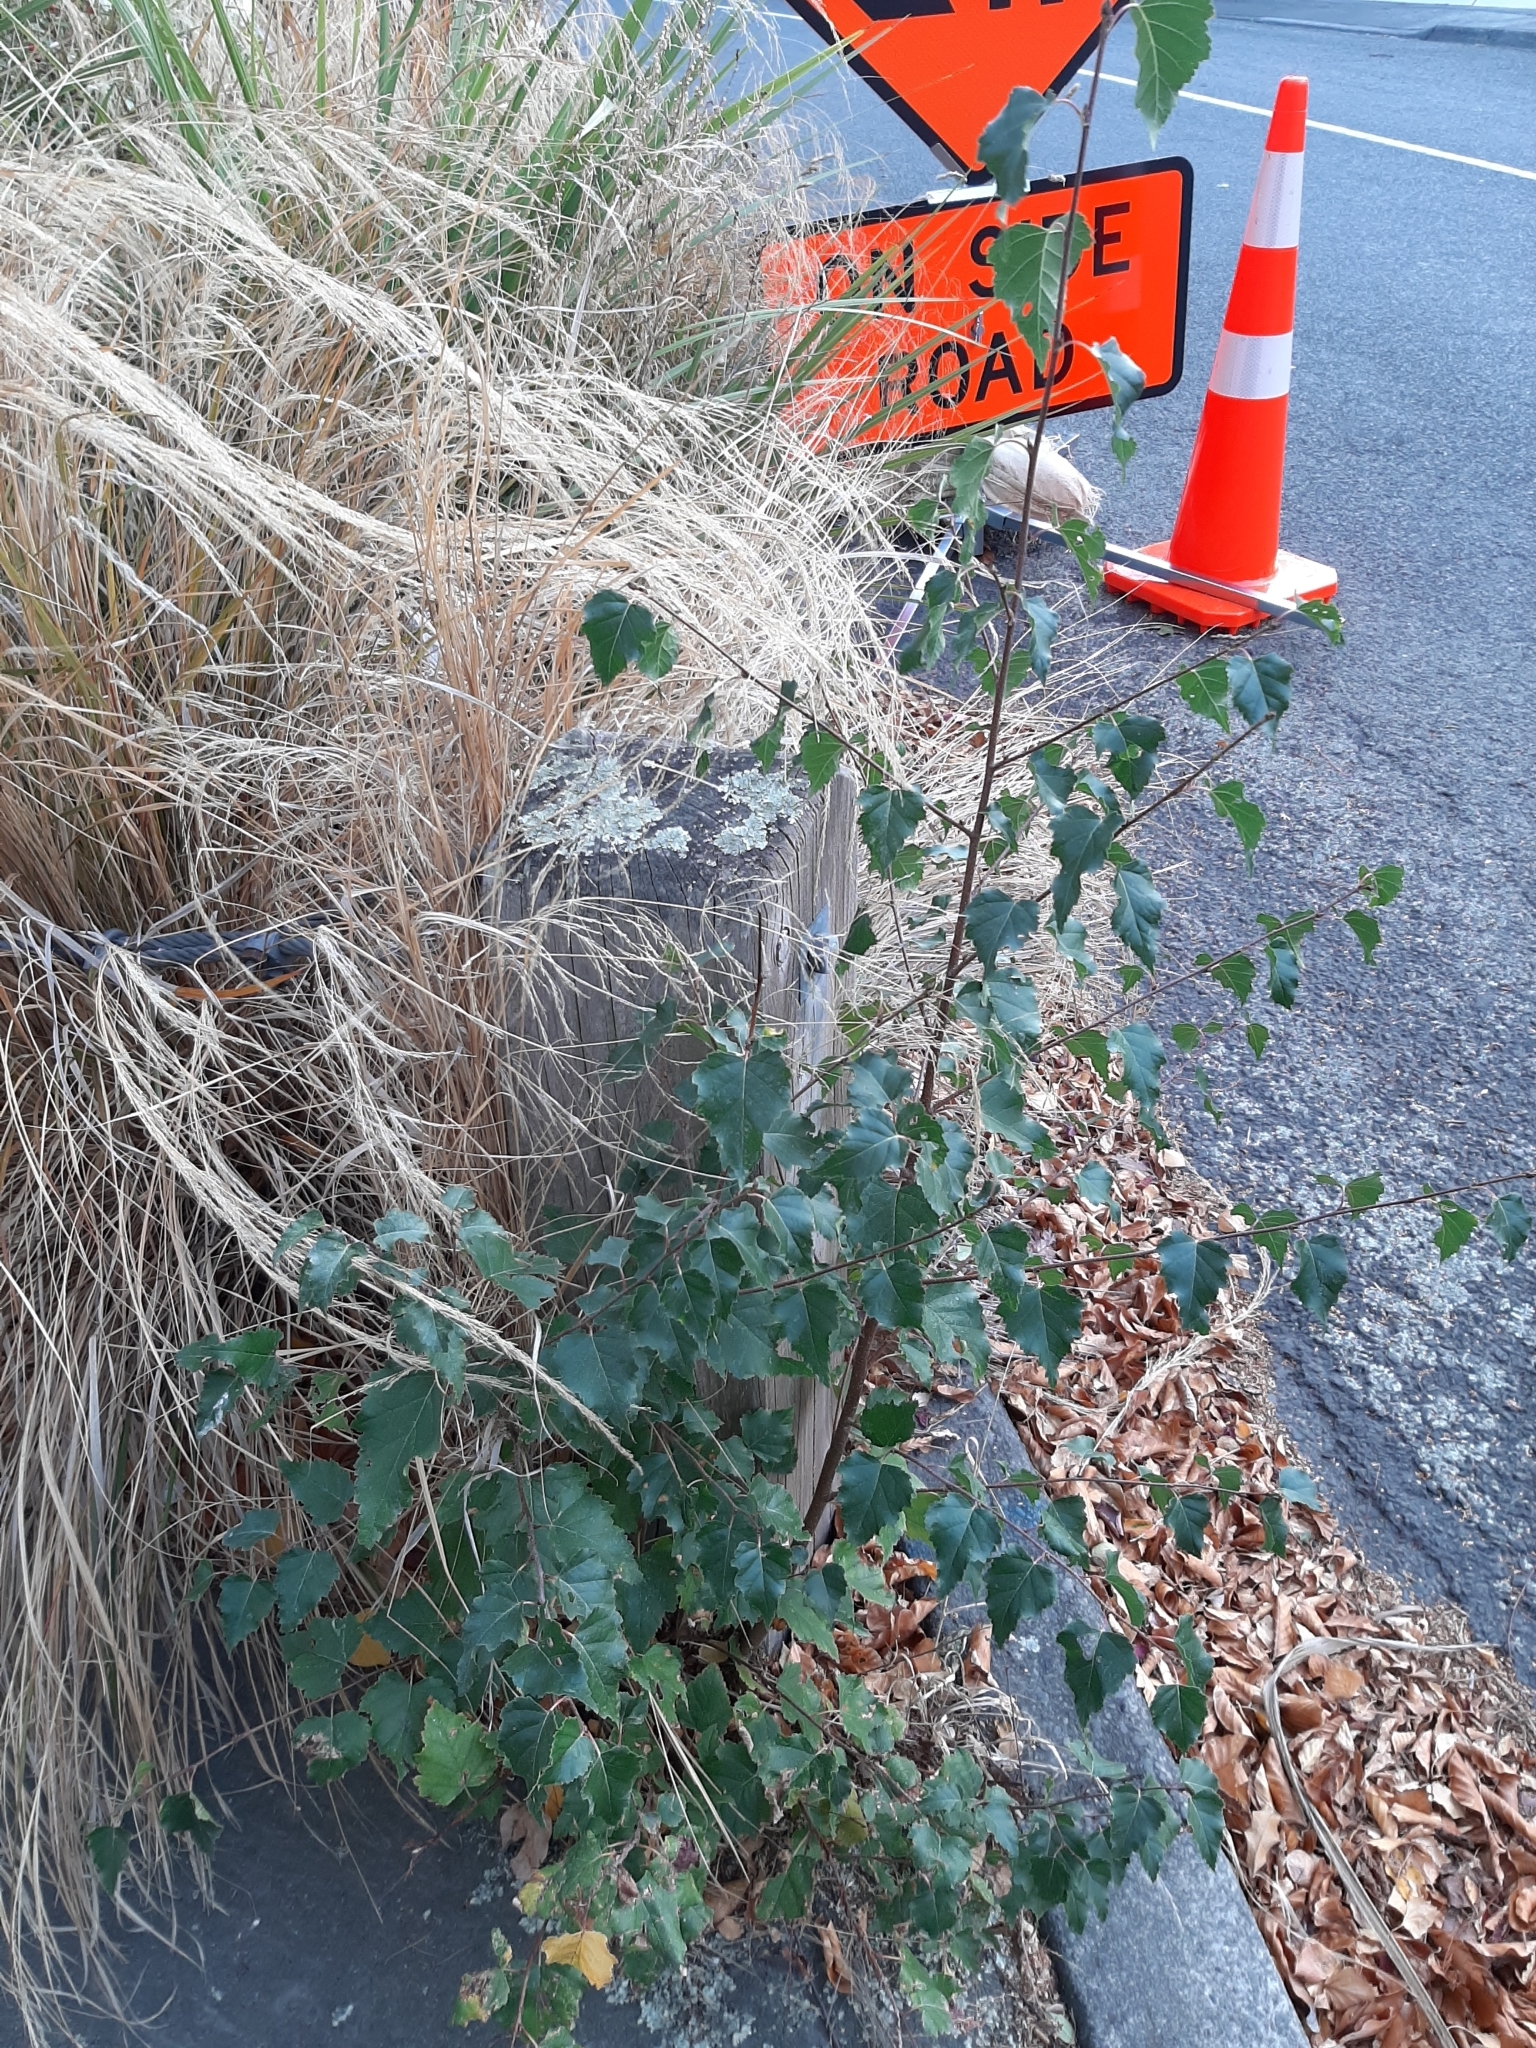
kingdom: Plantae
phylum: Tracheophyta
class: Magnoliopsida
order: Fagales
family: Betulaceae
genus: Betula
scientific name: Betula pendula
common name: Silver birch
